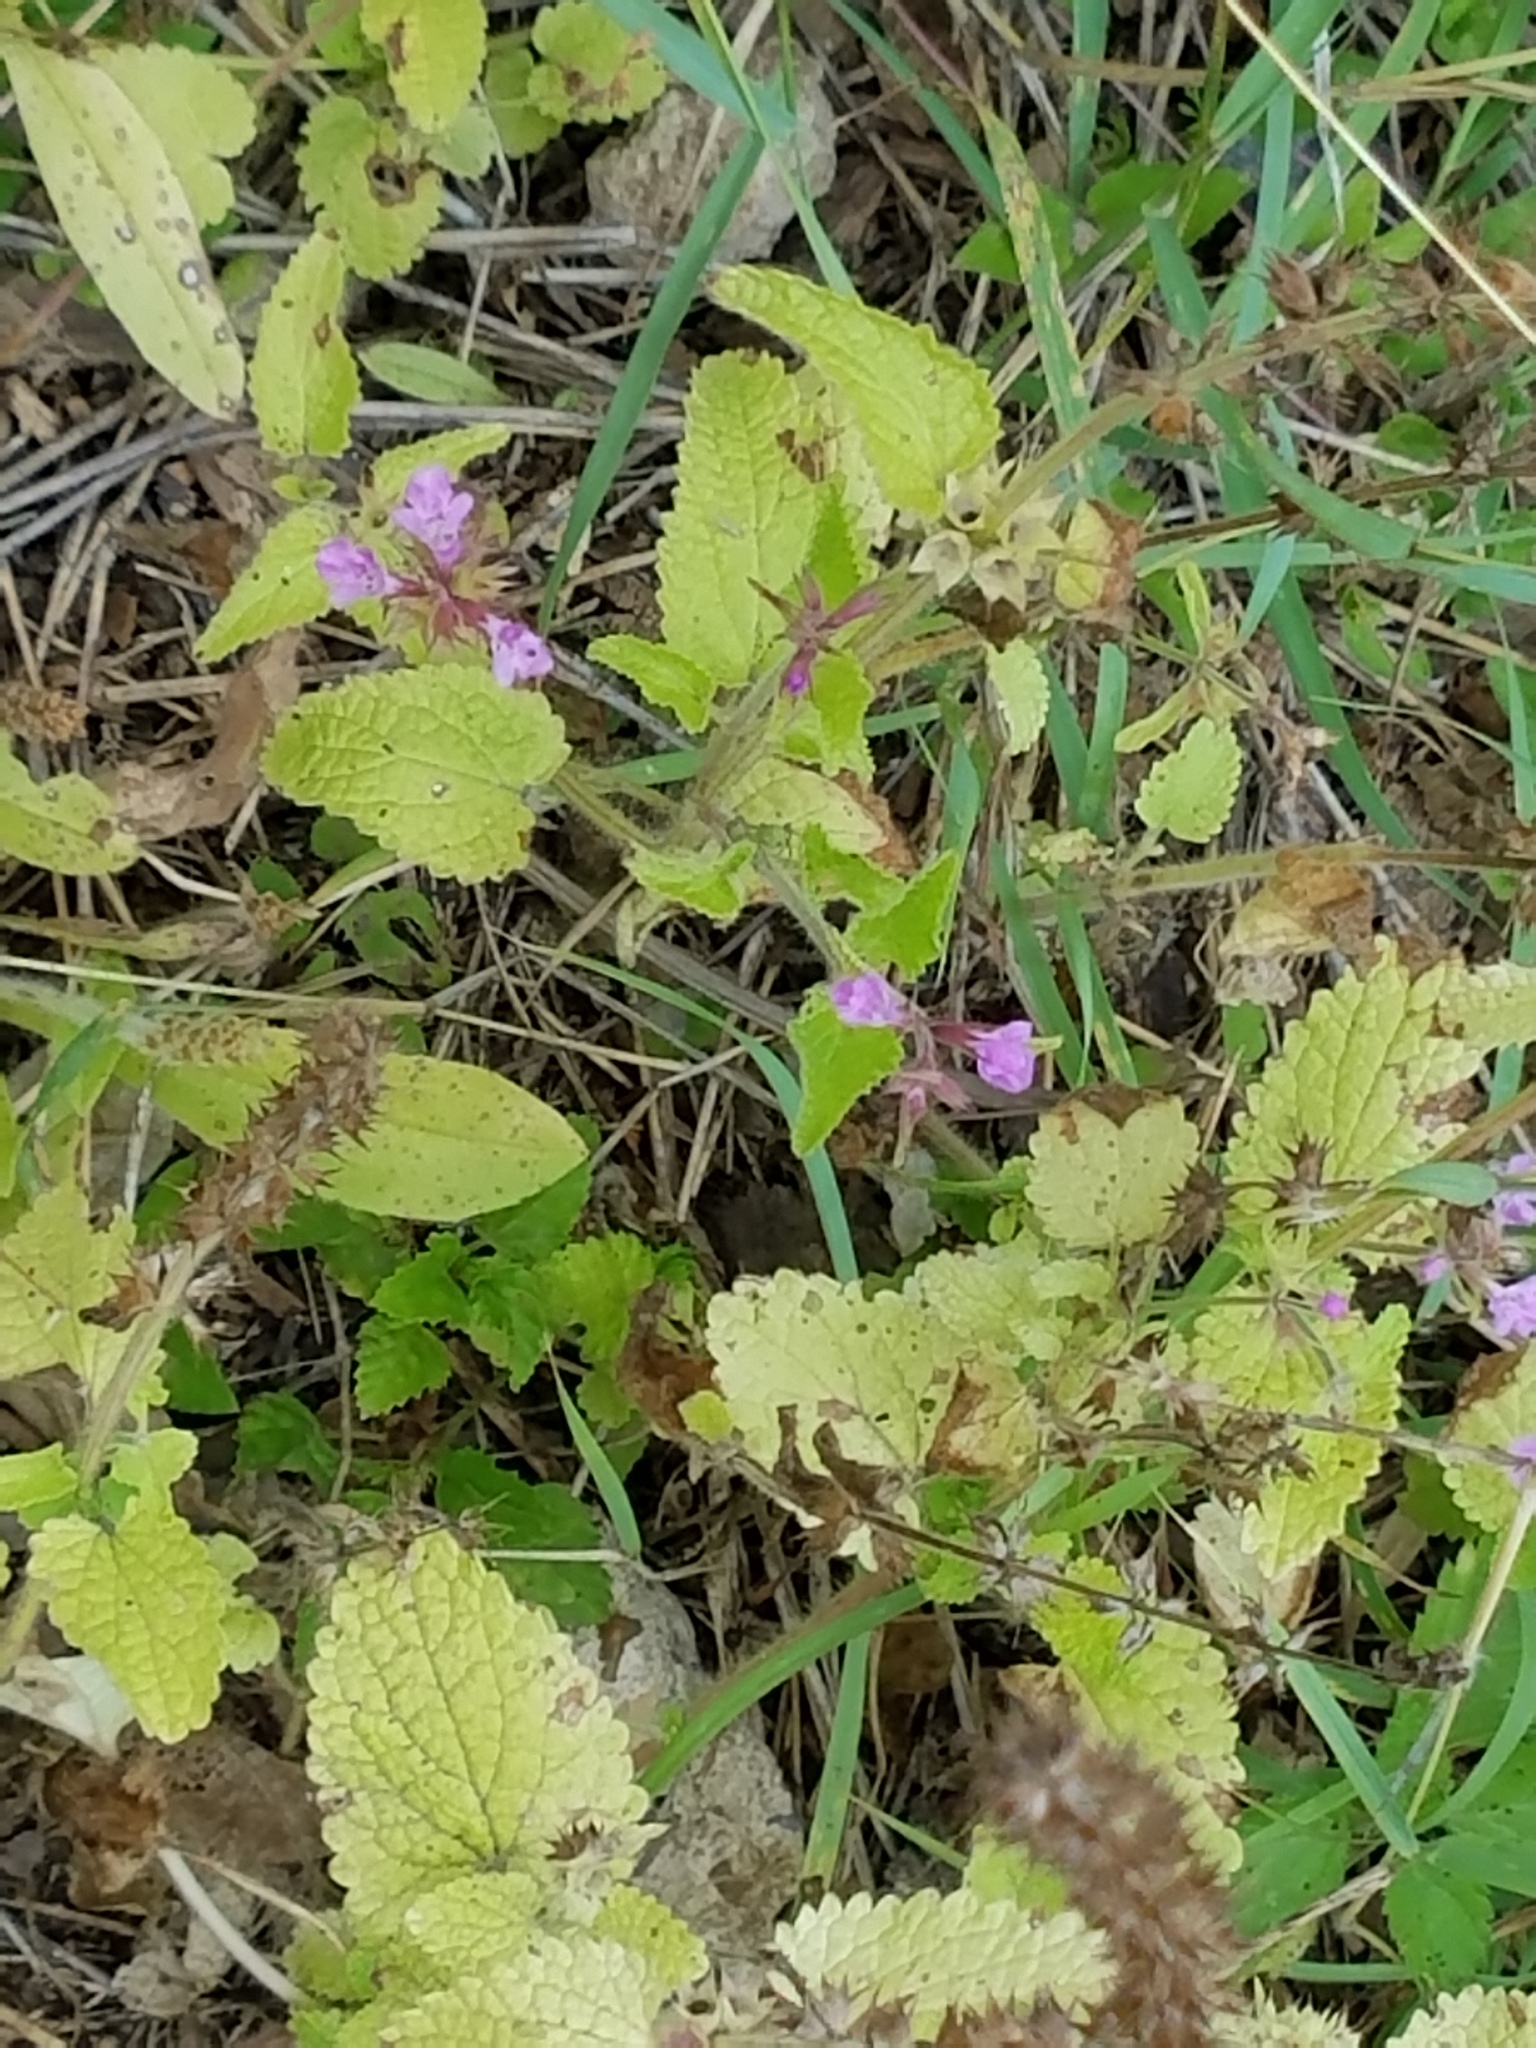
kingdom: Plantae
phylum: Tracheophyta
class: Magnoliopsida
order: Lamiales
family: Lamiaceae
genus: Stachys
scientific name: Stachys drummondii
